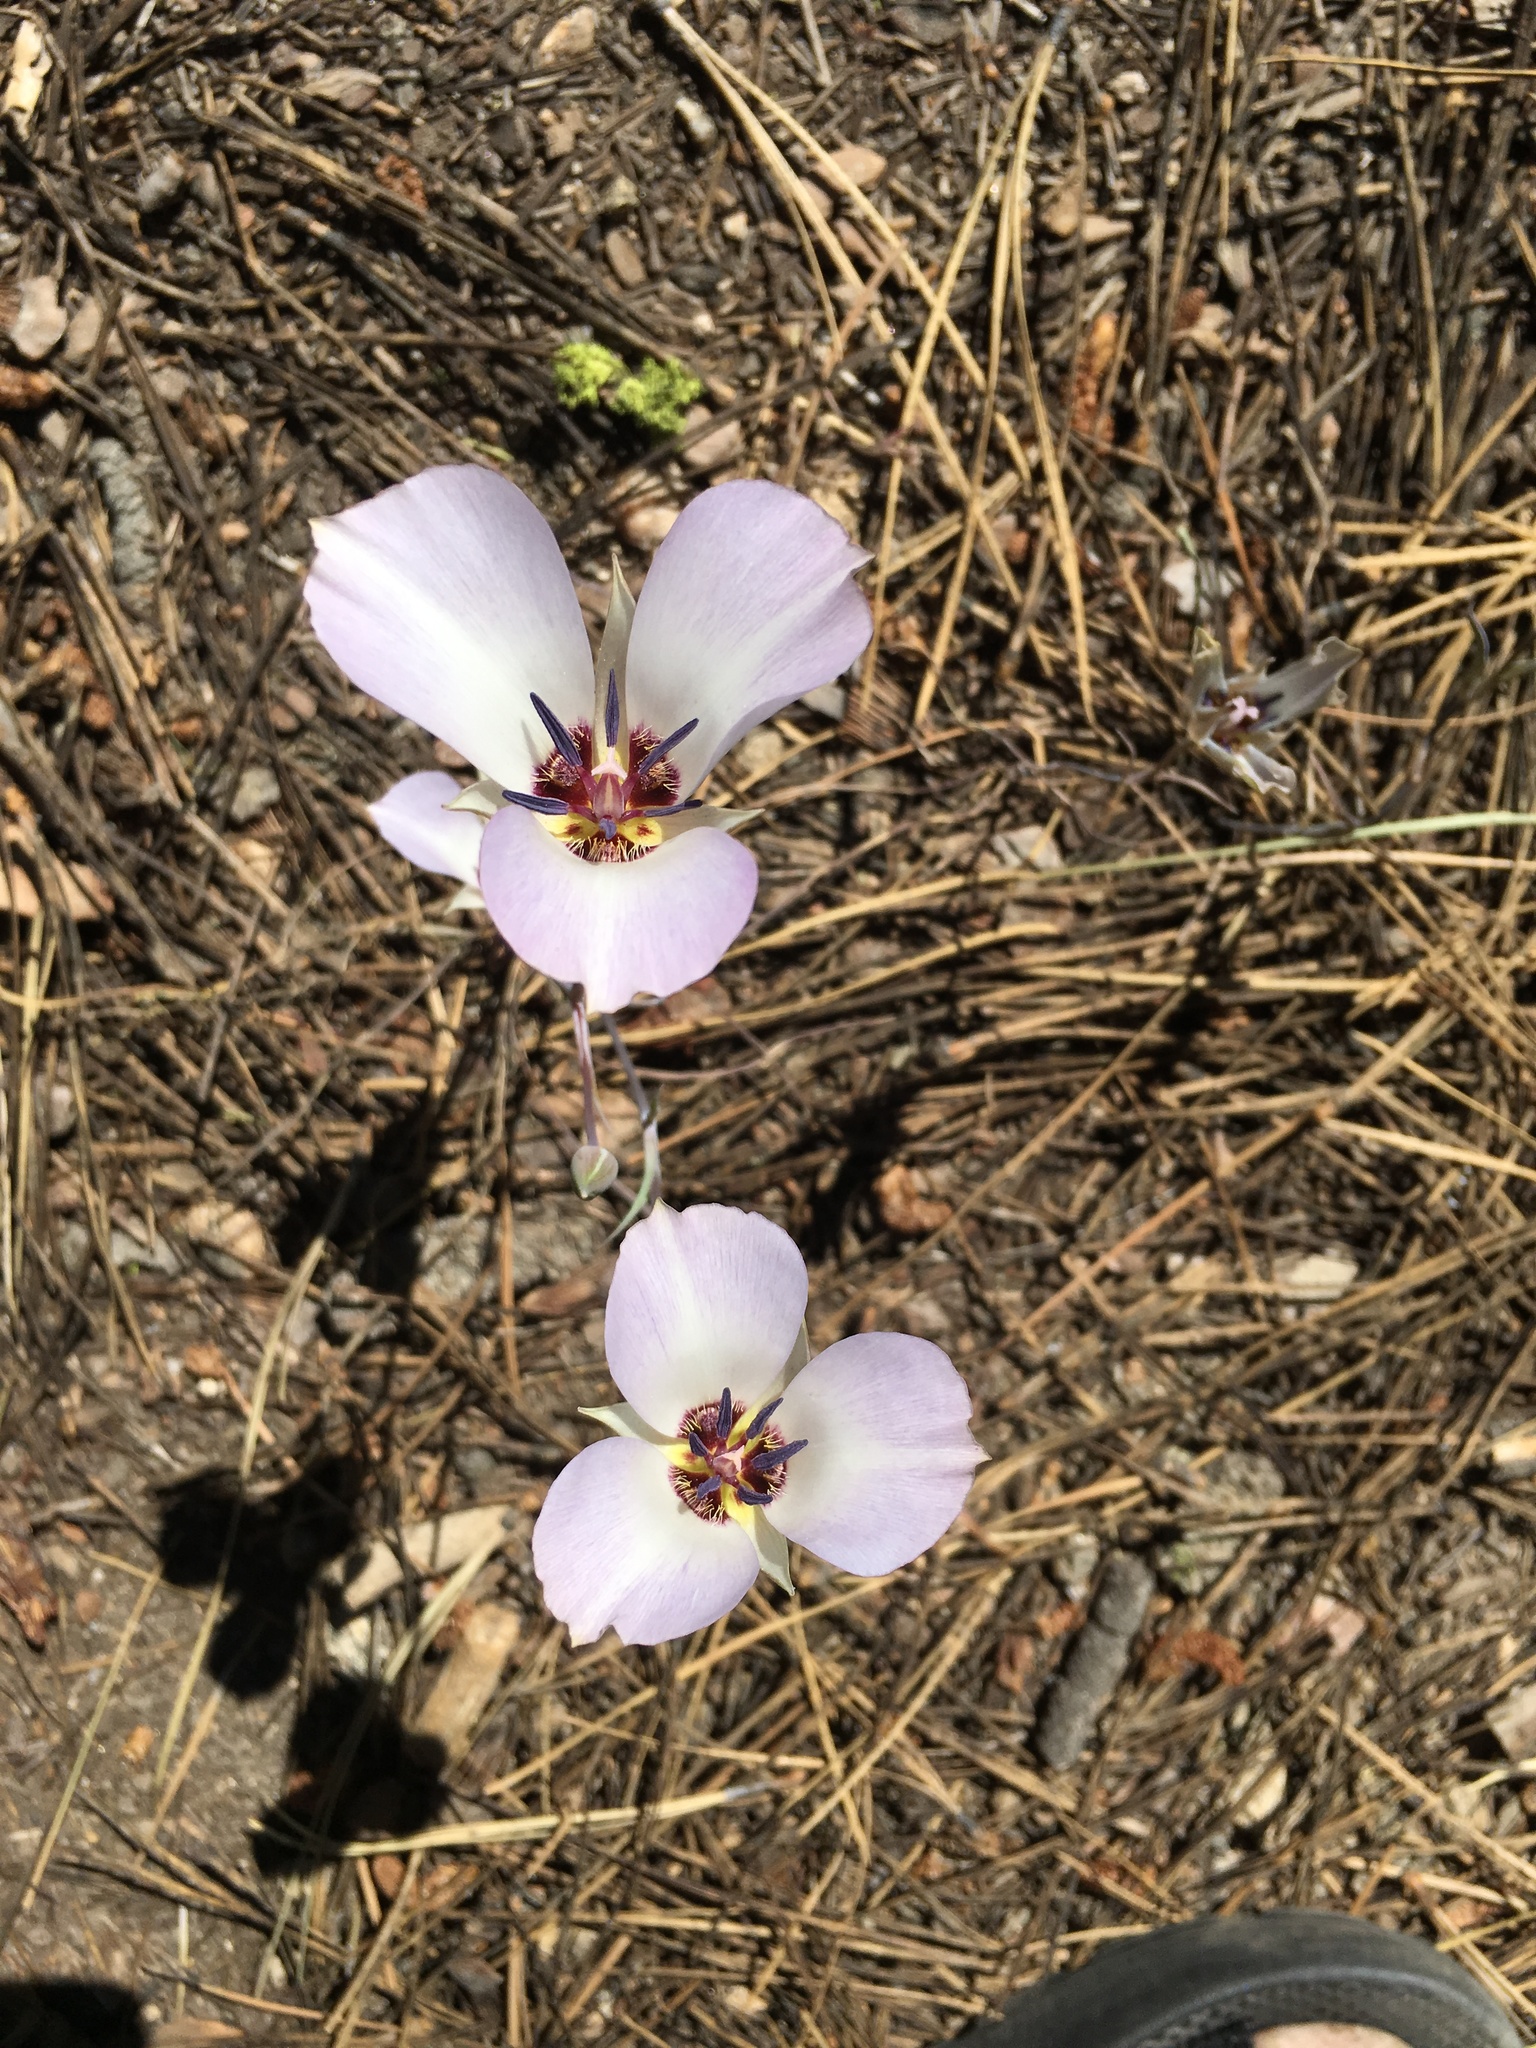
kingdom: Plantae
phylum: Tracheophyta
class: Liliopsida
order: Liliales
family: Liliaceae
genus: Calochortus
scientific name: Calochortus invenustus
